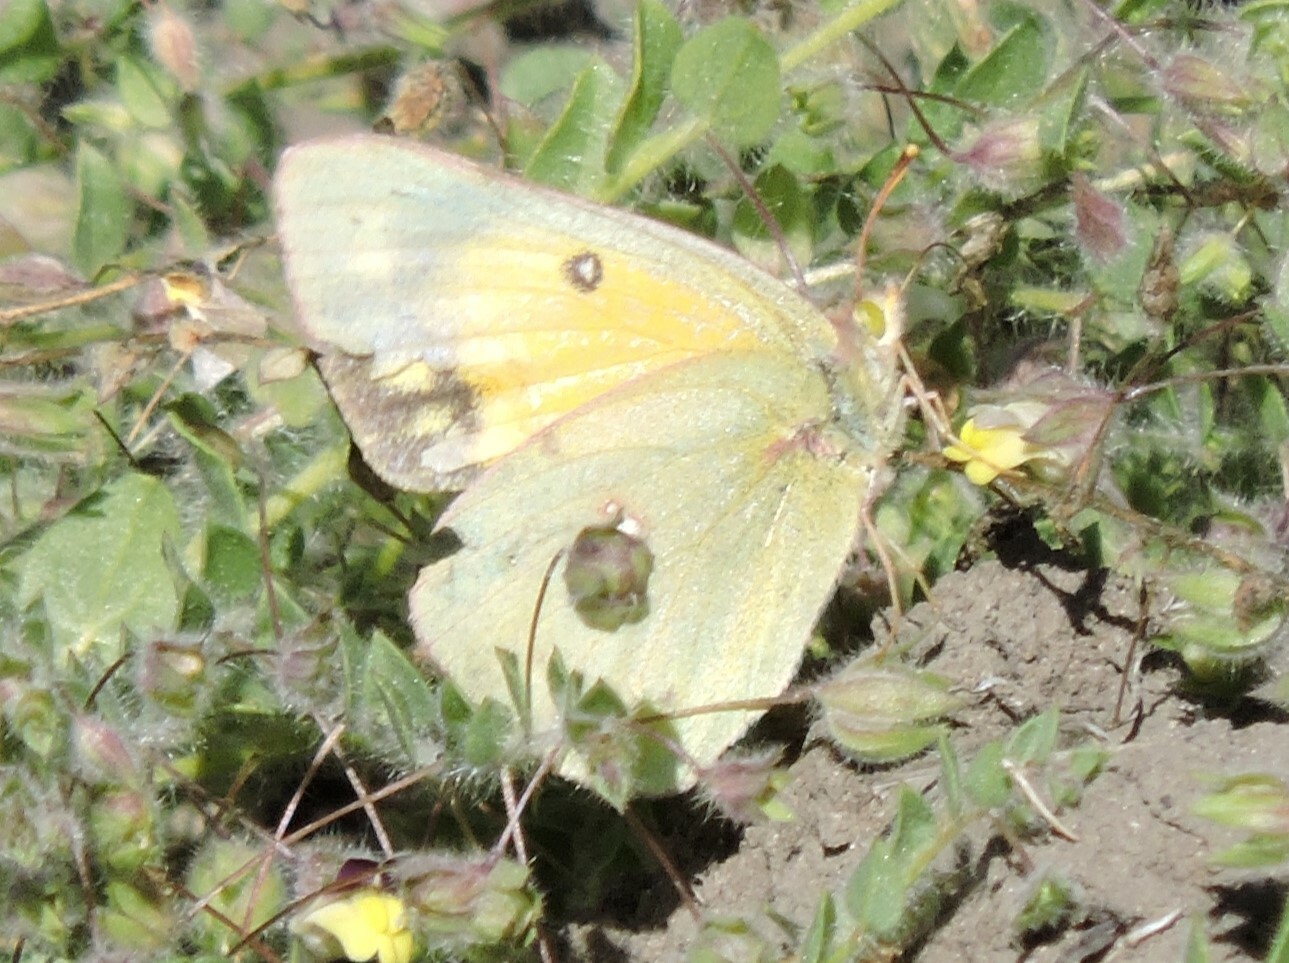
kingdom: Animalia
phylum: Arthropoda
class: Insecta
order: Lepidoptera
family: Pieridae
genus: Colias
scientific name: Colias eurytheme
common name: Alfalfa butterfly
